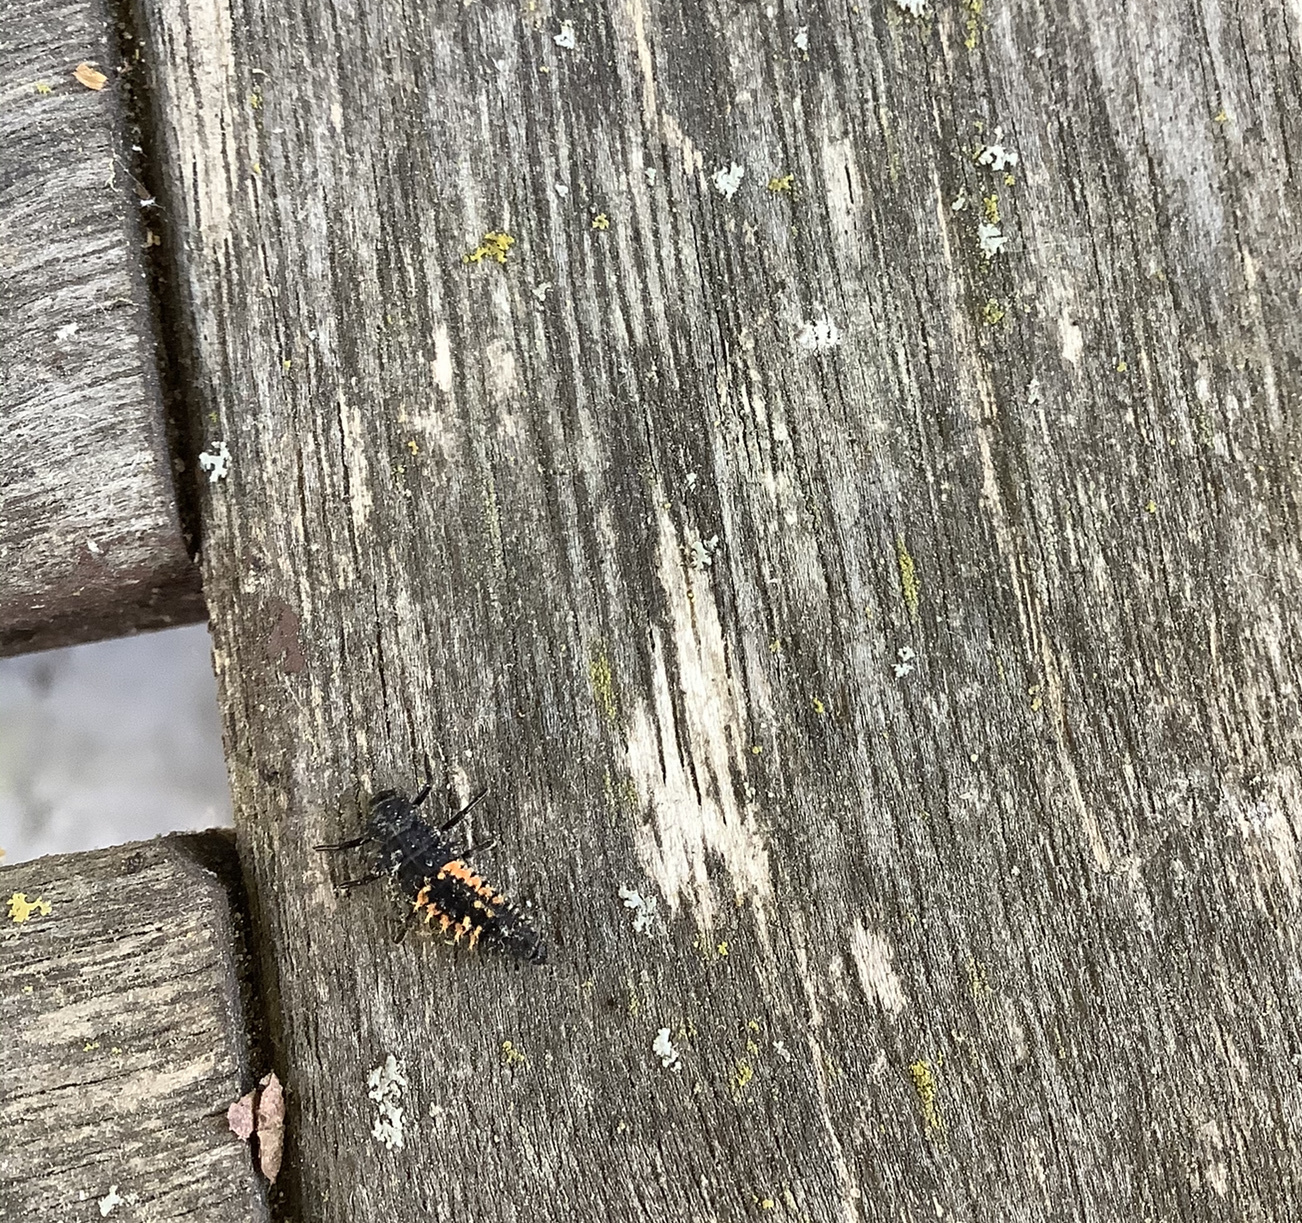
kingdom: Animalia
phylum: Arthropoda
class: Insecta
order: Coleoptera
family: Coccinellidae
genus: Harmonia
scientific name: Harmonia axyridis
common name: Harlequin ladybird
